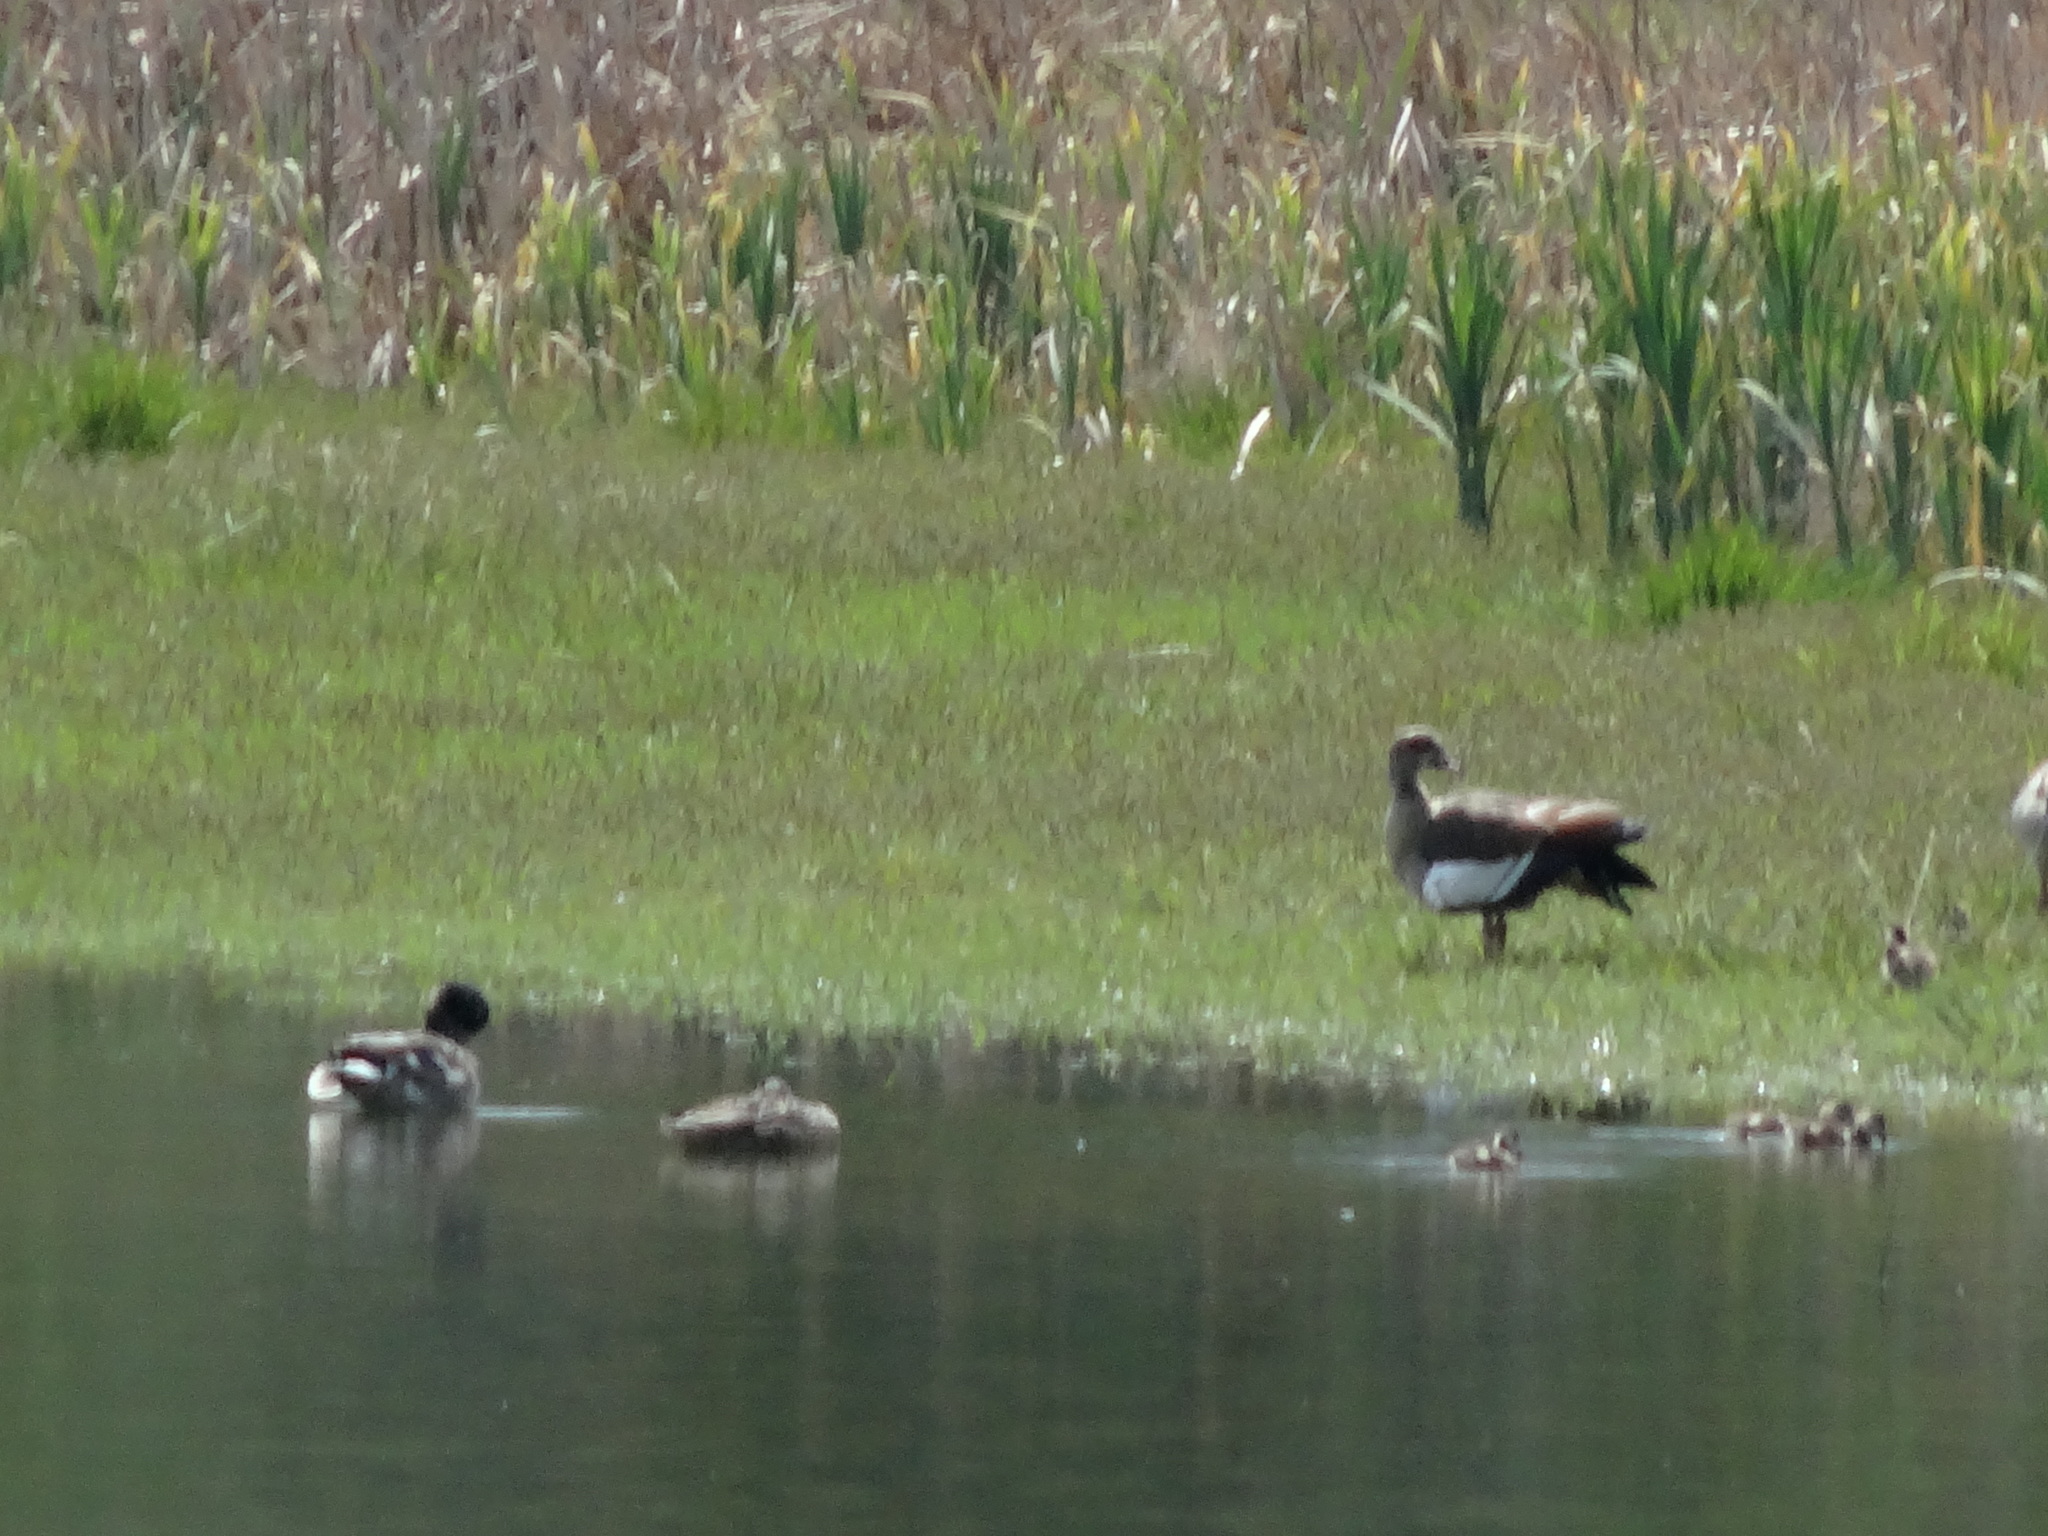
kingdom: Animalia
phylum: Chordata
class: Aves
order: Anseriformes
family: Anatidae
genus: Alopochen
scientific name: Alopochen aegyptiaca
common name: Egyptian goose
